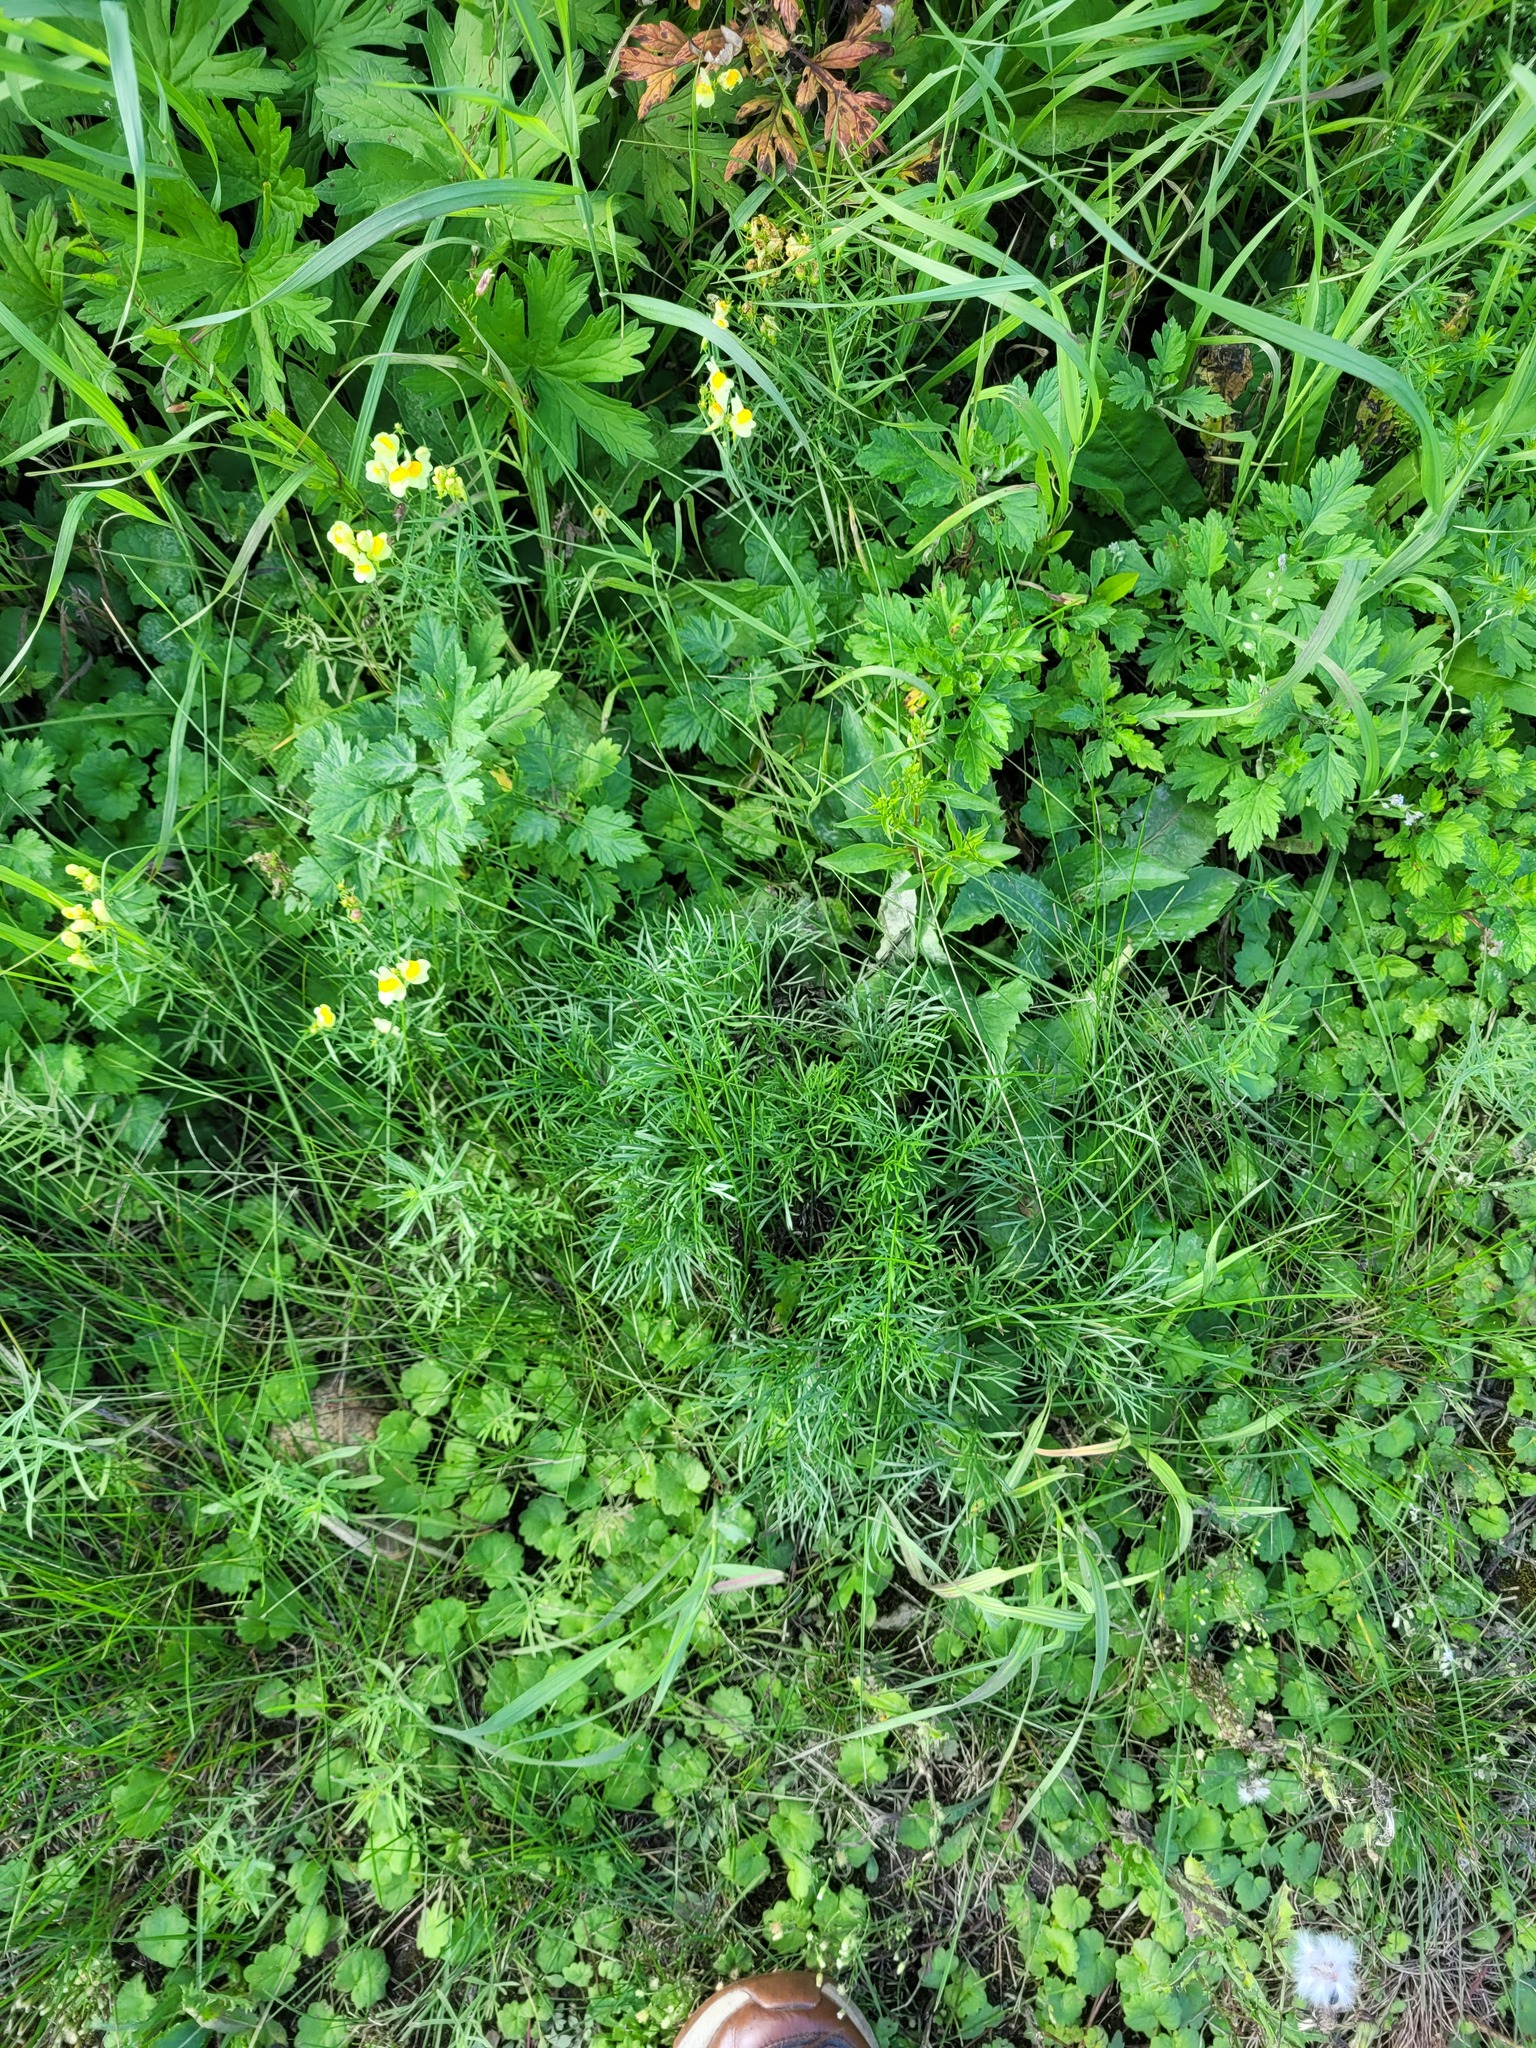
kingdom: Plantae
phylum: Tracheophyta
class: Magnoliopsida
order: Asterales
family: Asteraceae
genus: Artemisia
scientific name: Artemisia campestris
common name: Field wormwood
